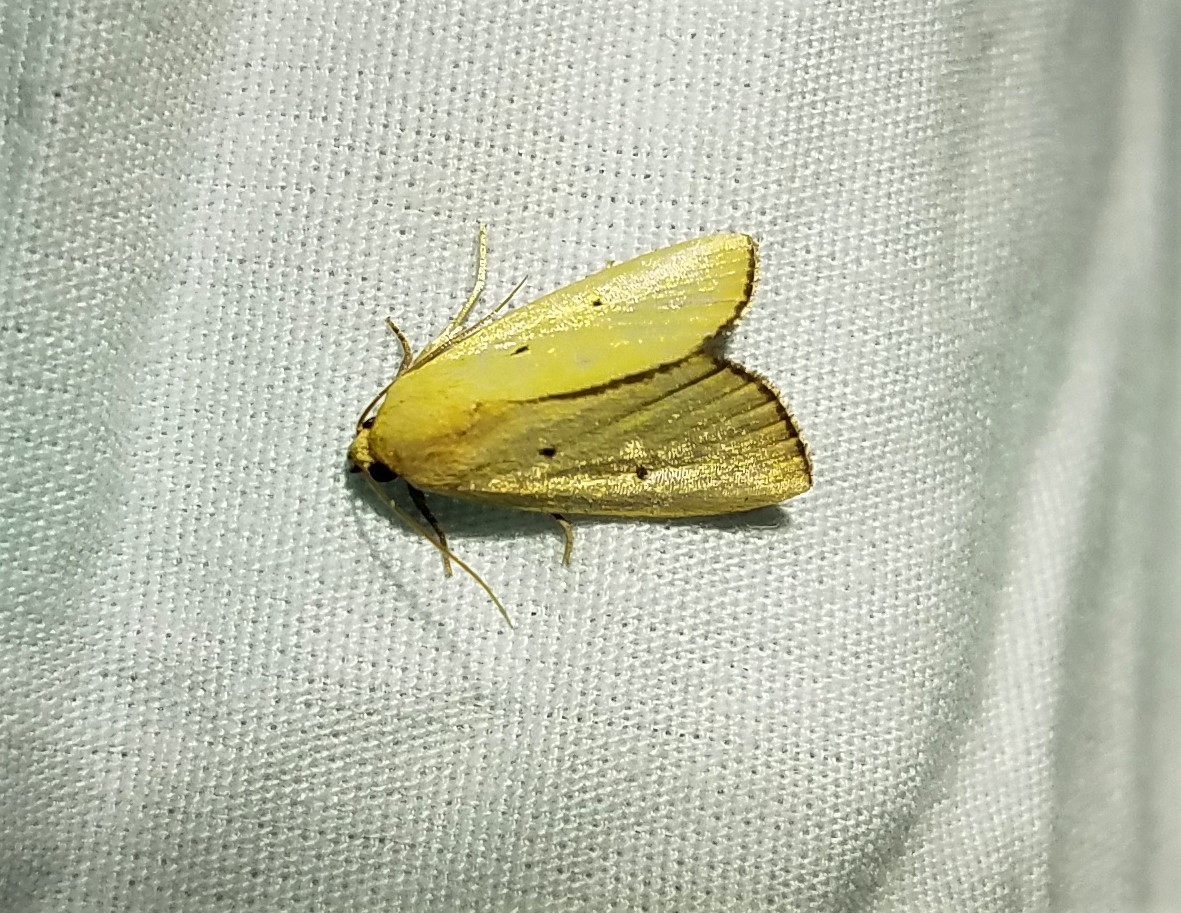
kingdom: Animalia
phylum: Arthropoda
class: Insecta
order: Lepidoptera
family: Noctuidae
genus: Marimatha
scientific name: Marimatha nigrofimbria
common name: Black-bordered lemon moth
